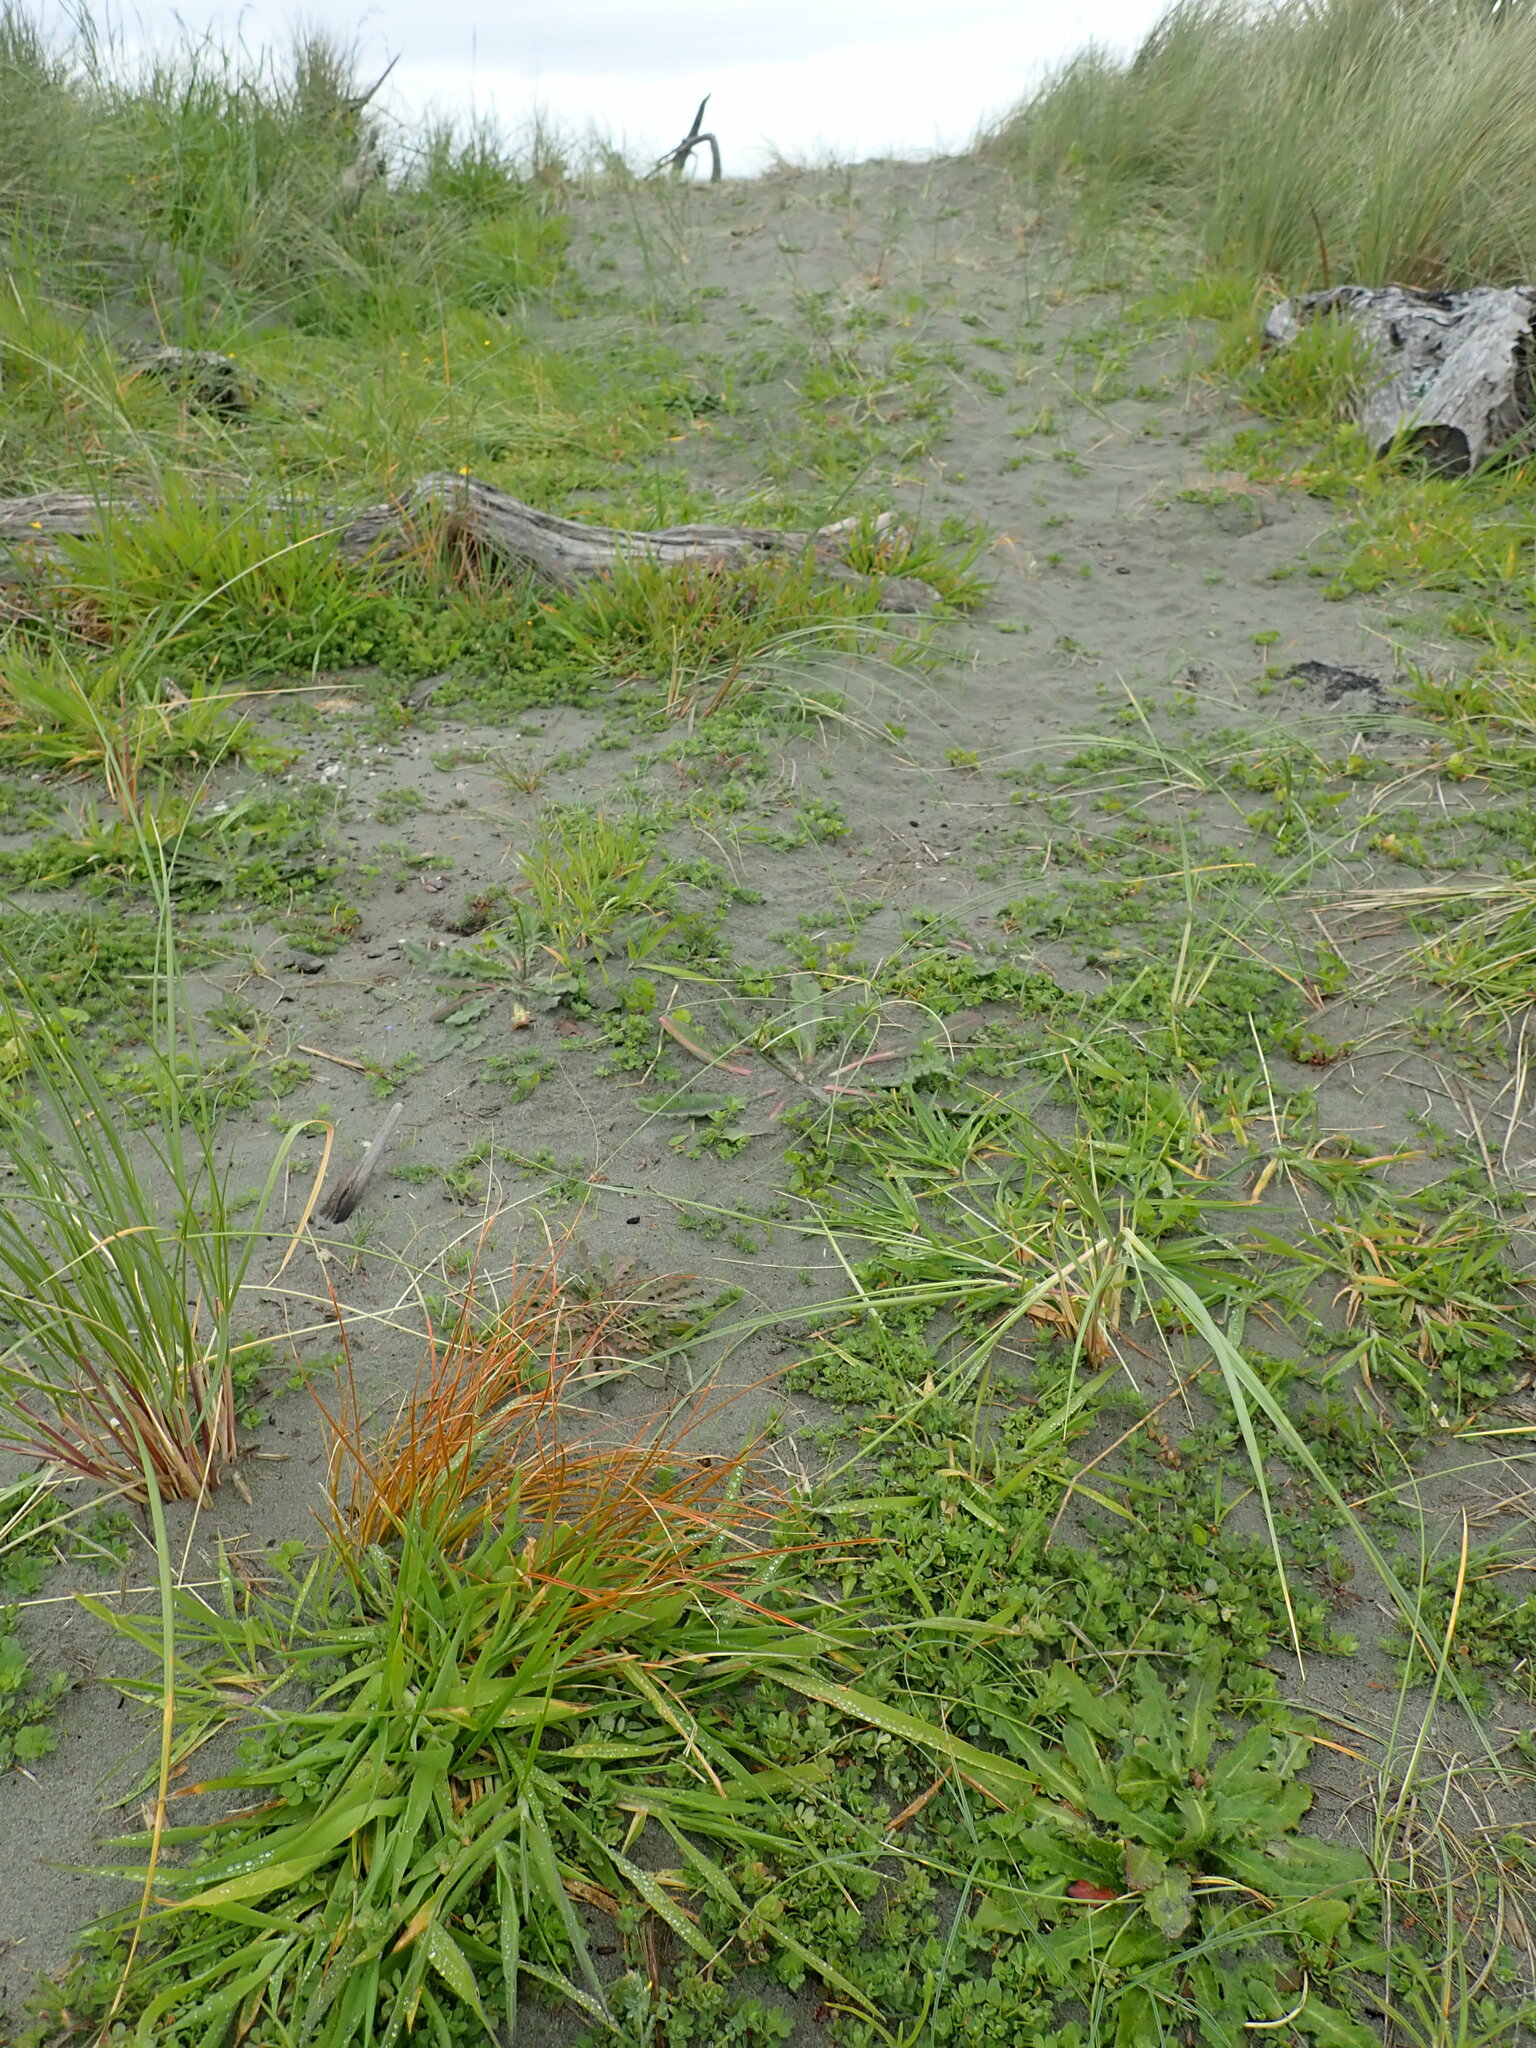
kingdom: Plantae
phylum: Tracheophyta
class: Liliopsida
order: Poales
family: Cyperaceae
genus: Carex
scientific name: Carex testacea
